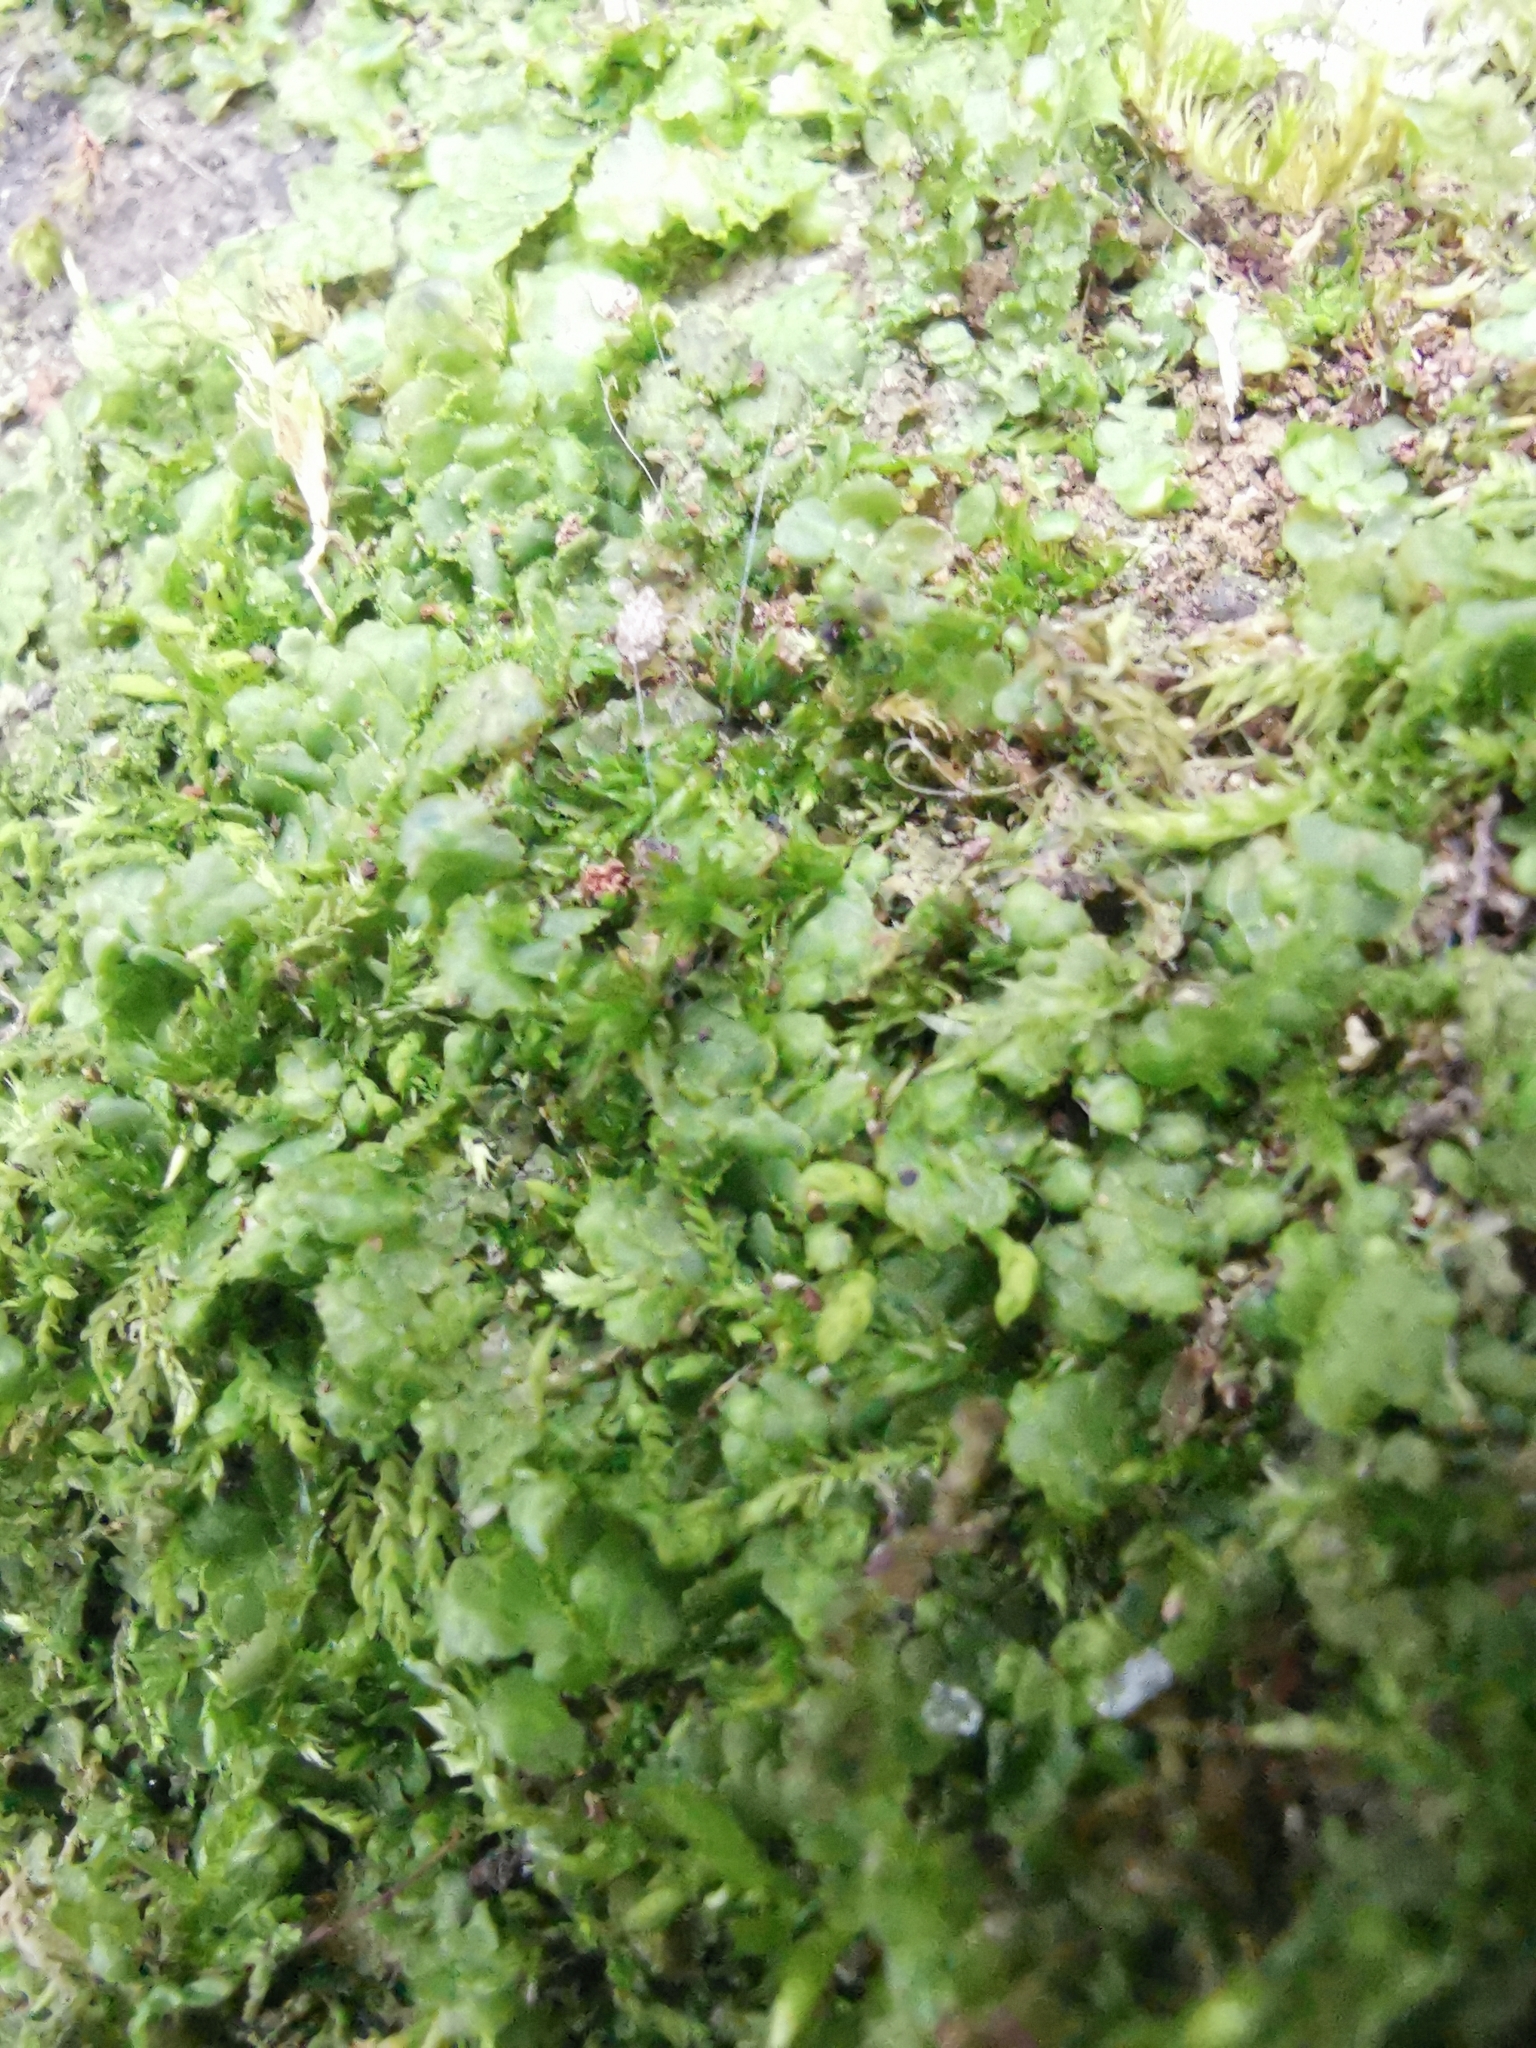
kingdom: Plantae
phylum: Marchantiophyta
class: Jungermanniopsida
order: Porellales
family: Radulaceae
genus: Radula
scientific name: Radula complanata
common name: Flat-leaved scalewort
